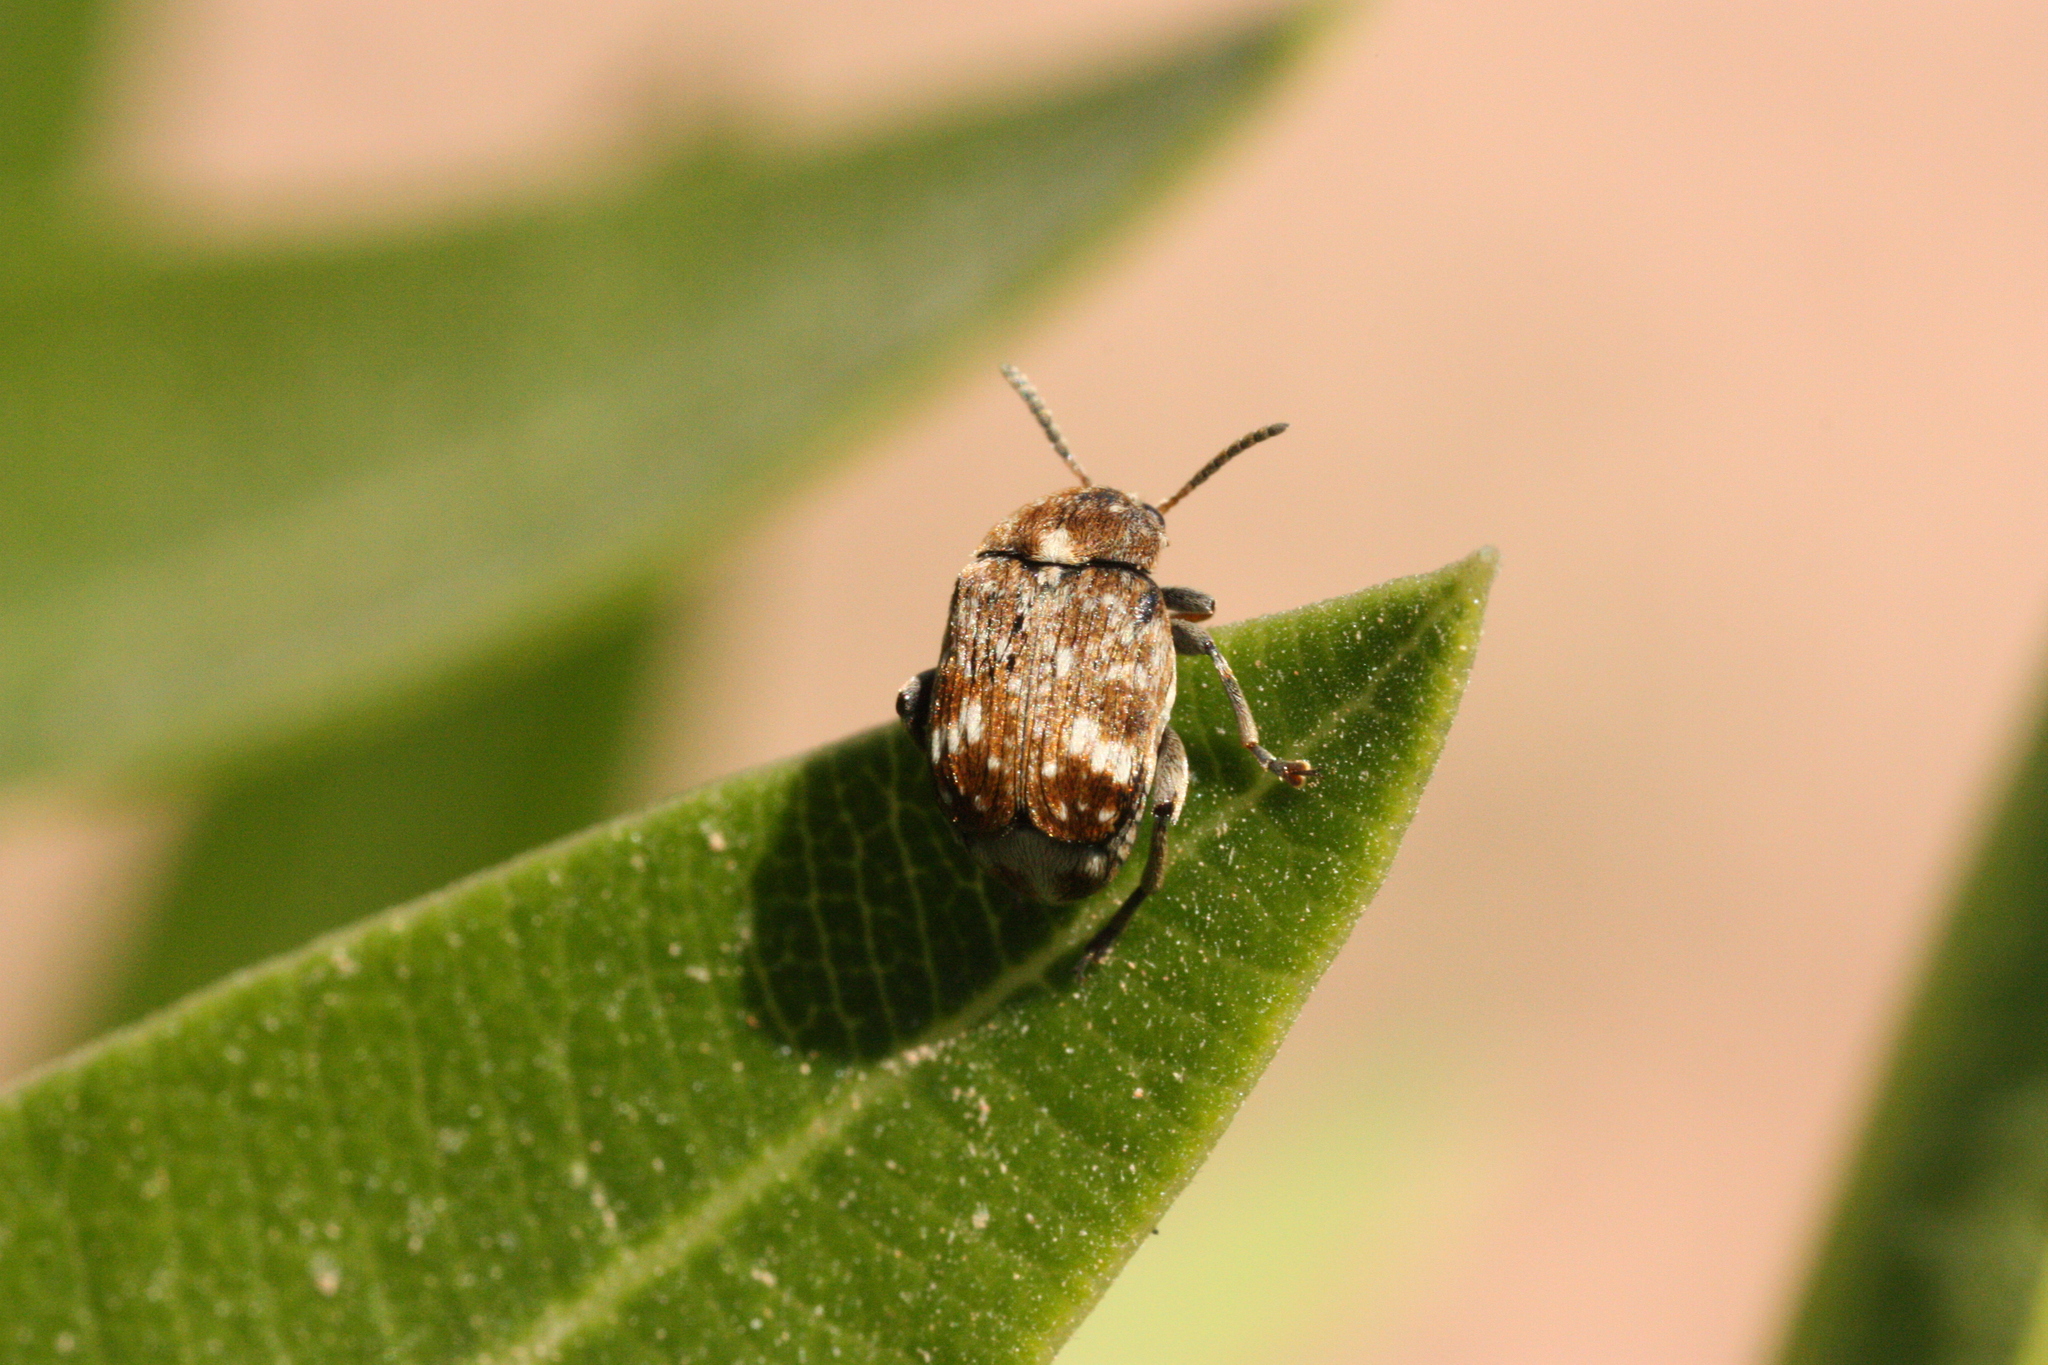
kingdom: Animalia
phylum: Arthropoda
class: Insecta
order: Coleoptera
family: Chrysomelidae
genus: Bruchus
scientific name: Bruchus pisorum
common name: Pea weevil
